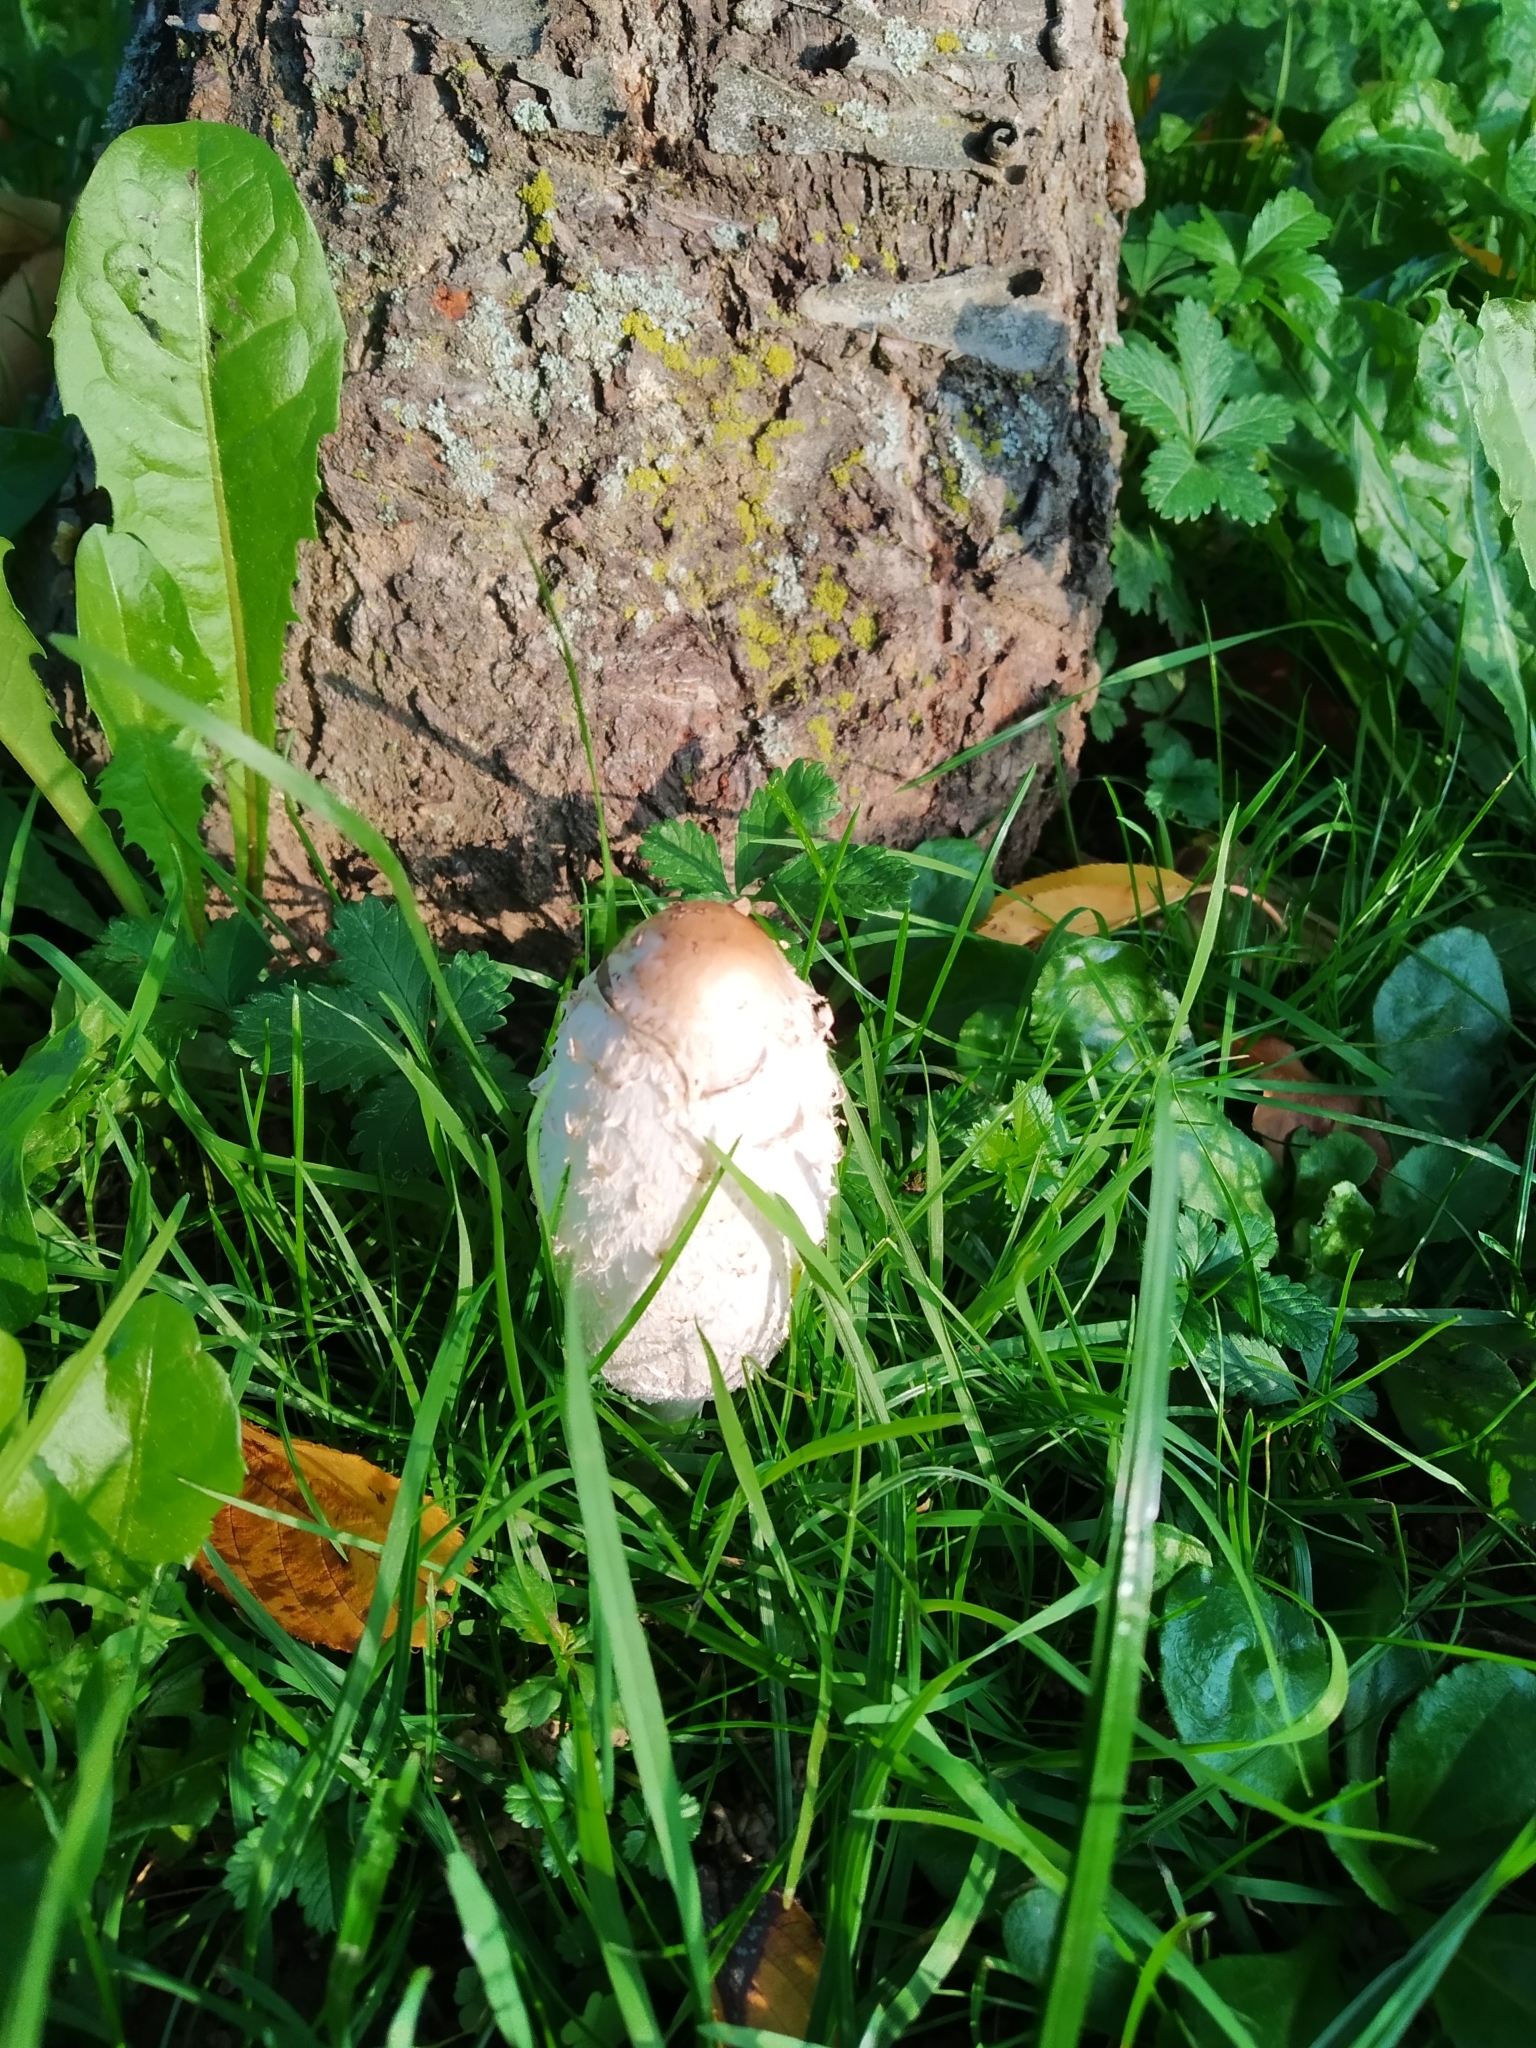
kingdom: Fungi
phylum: Basidiomycota
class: Agaricomycetes
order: Agaricales
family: Agaricaceae
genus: Coprinus
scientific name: Coprinus comatus
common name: Lawyer's wig
